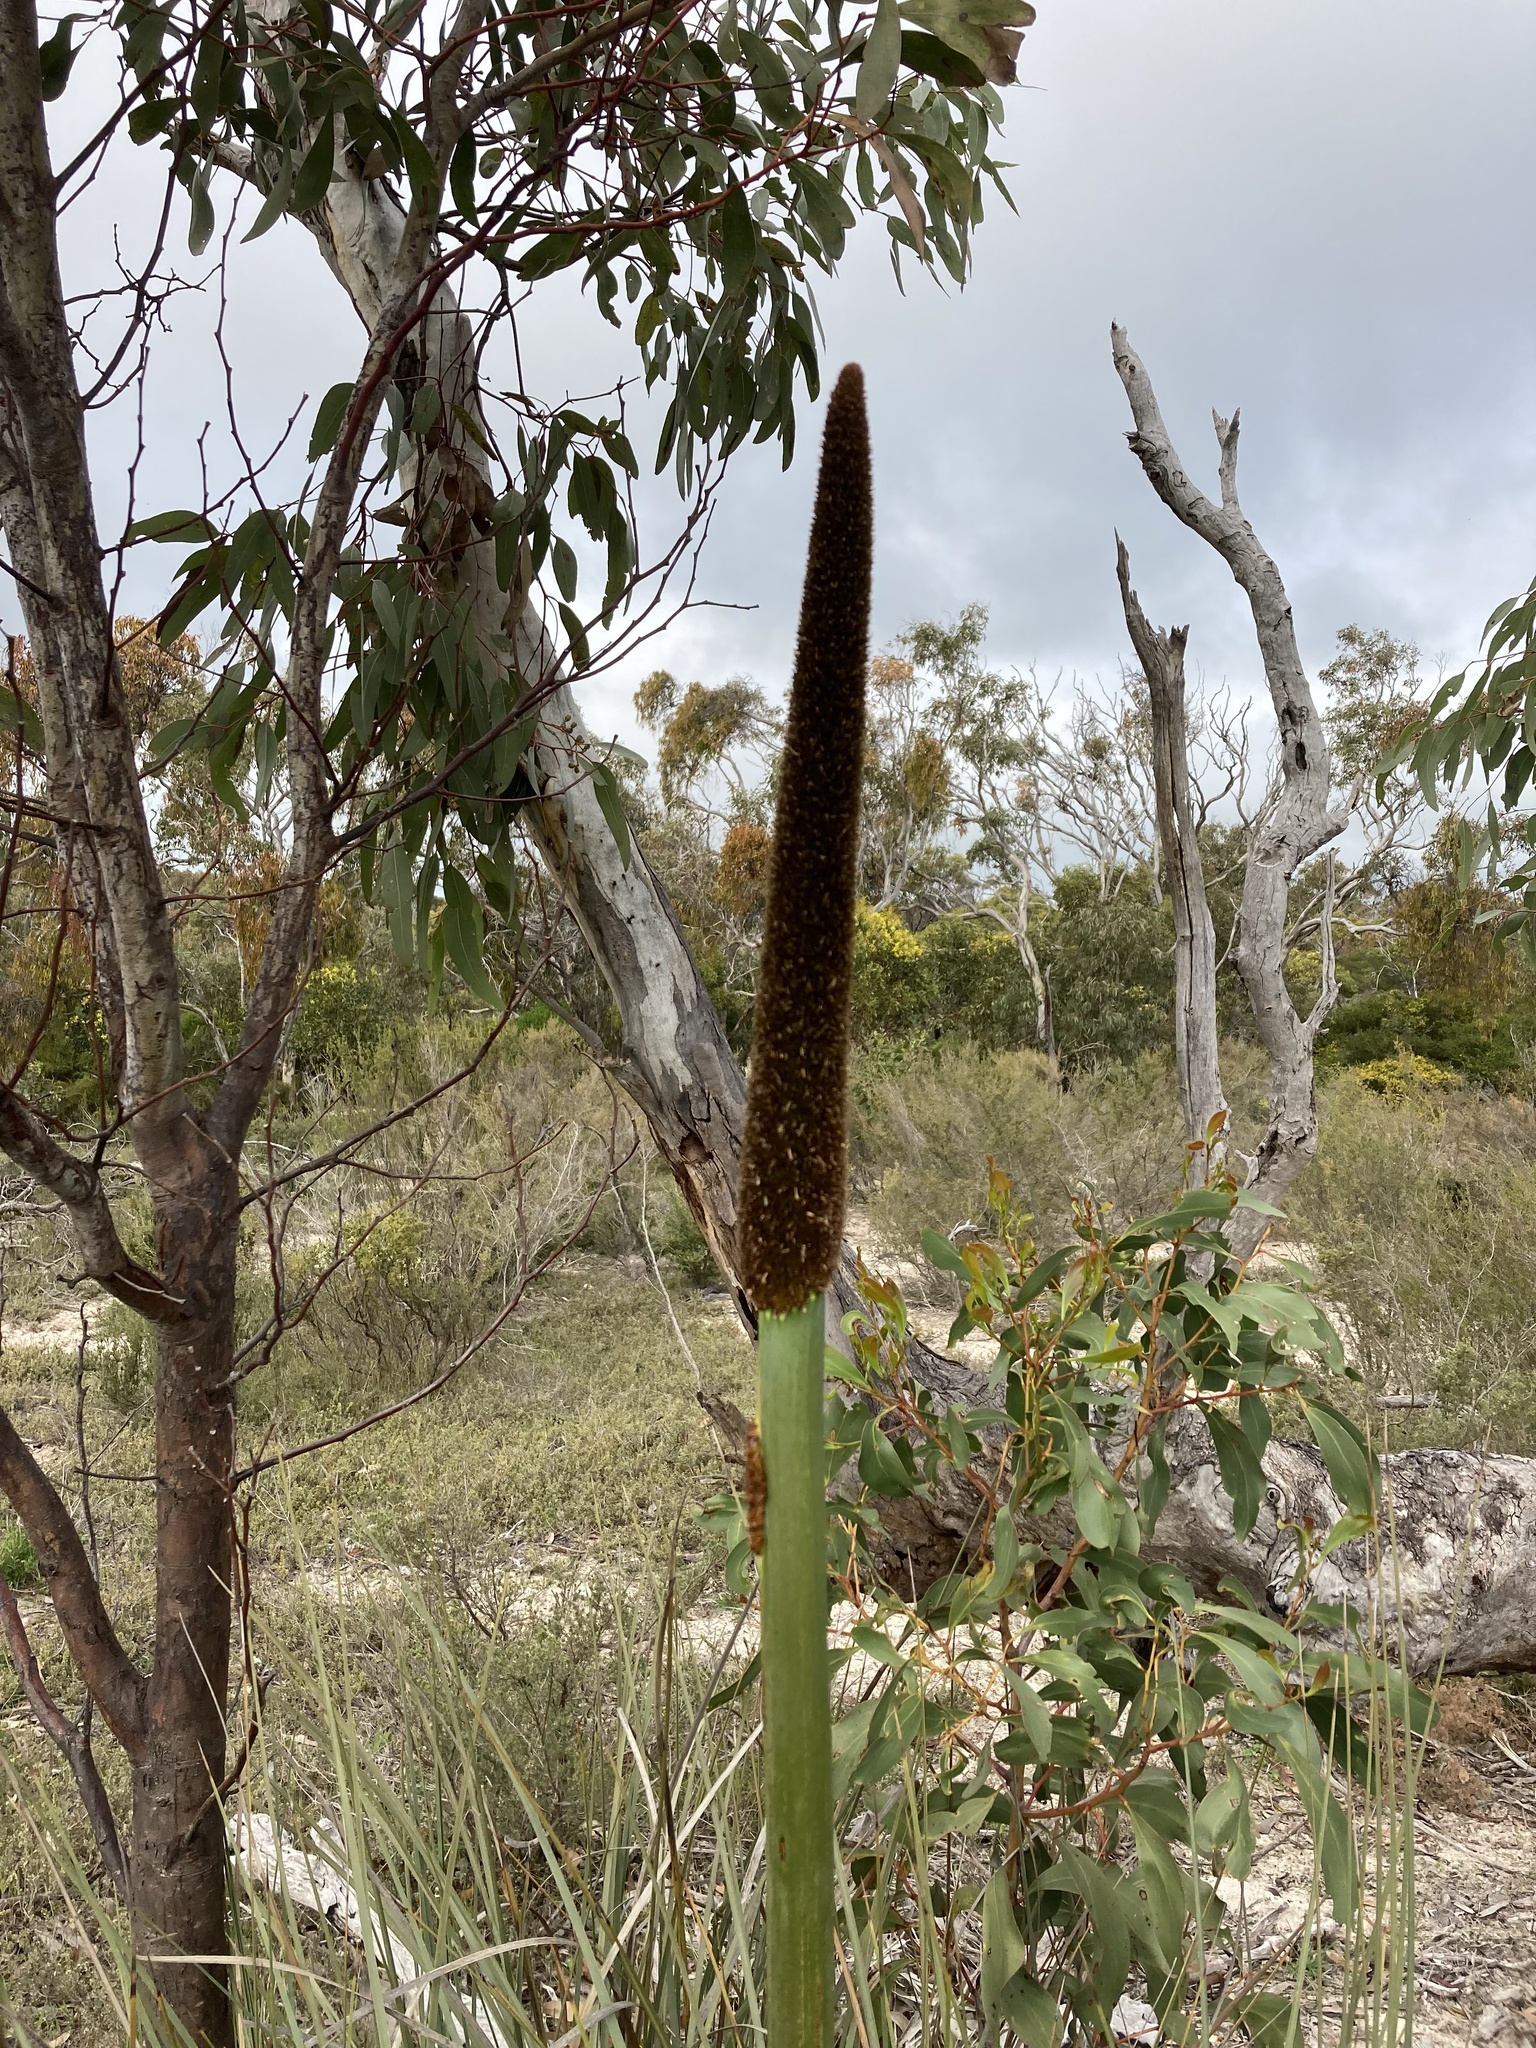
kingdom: Plantae
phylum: Tracheophyta
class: Liliopsida
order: Asparagales
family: Asphodelaceae
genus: Xanthorrhoea
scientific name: Xanthorrhoea semiplana
